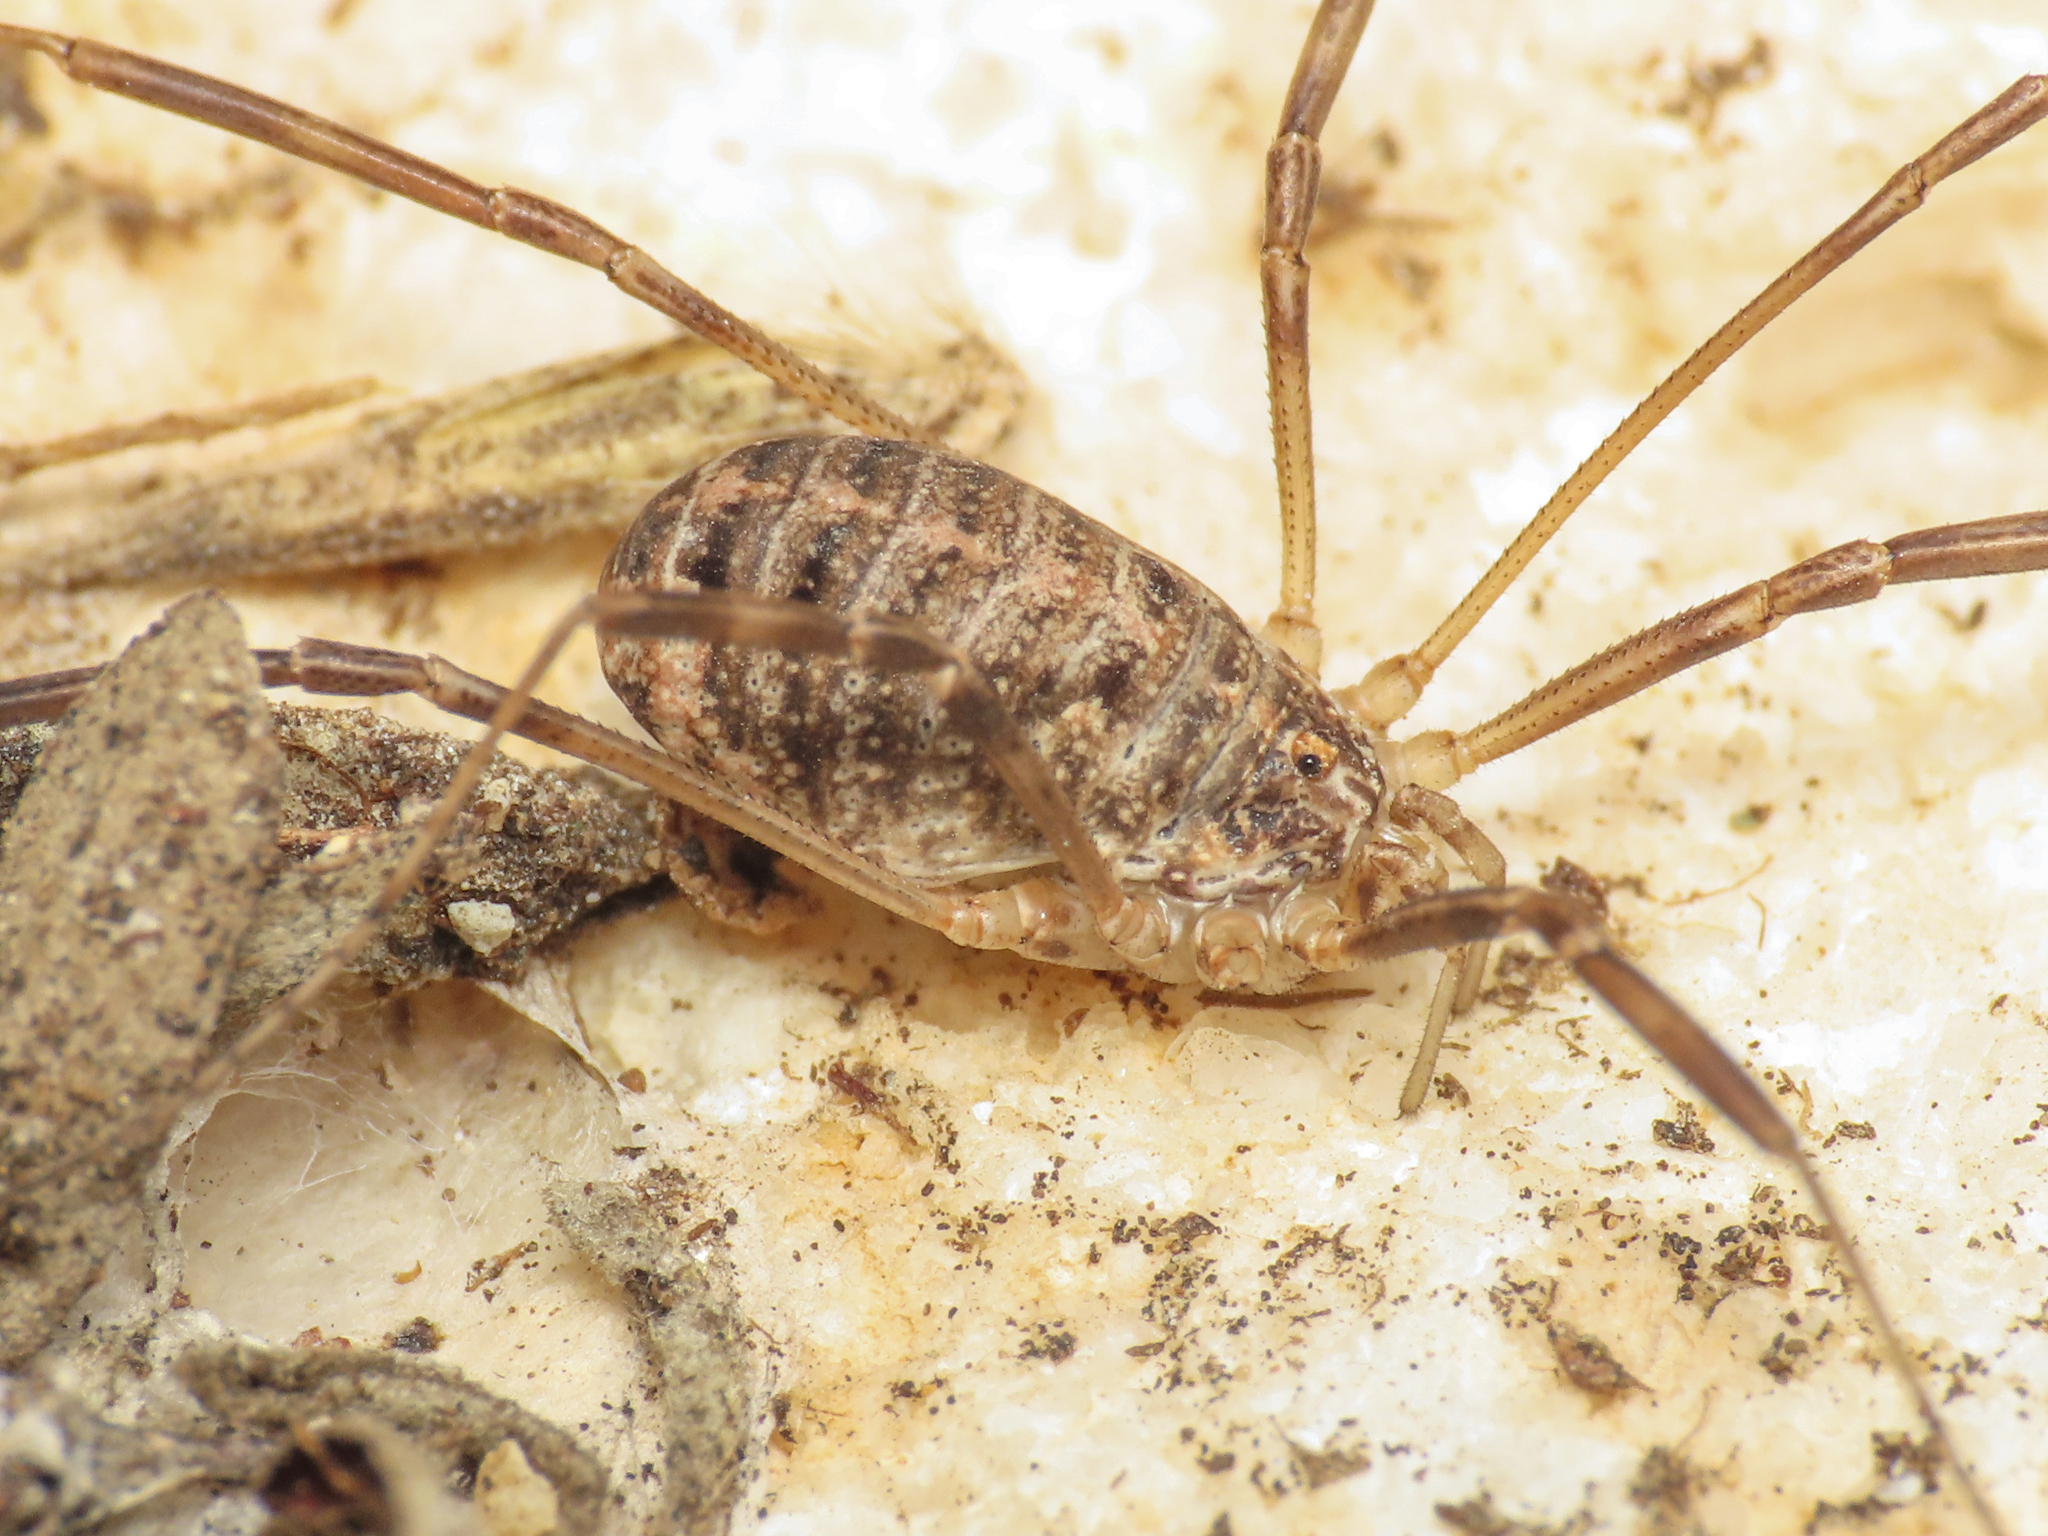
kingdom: Animalia
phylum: Arthropoda
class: Arachnida
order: Opiliones
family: Phalangiidae
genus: Opilio
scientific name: Opilio saxatilis
